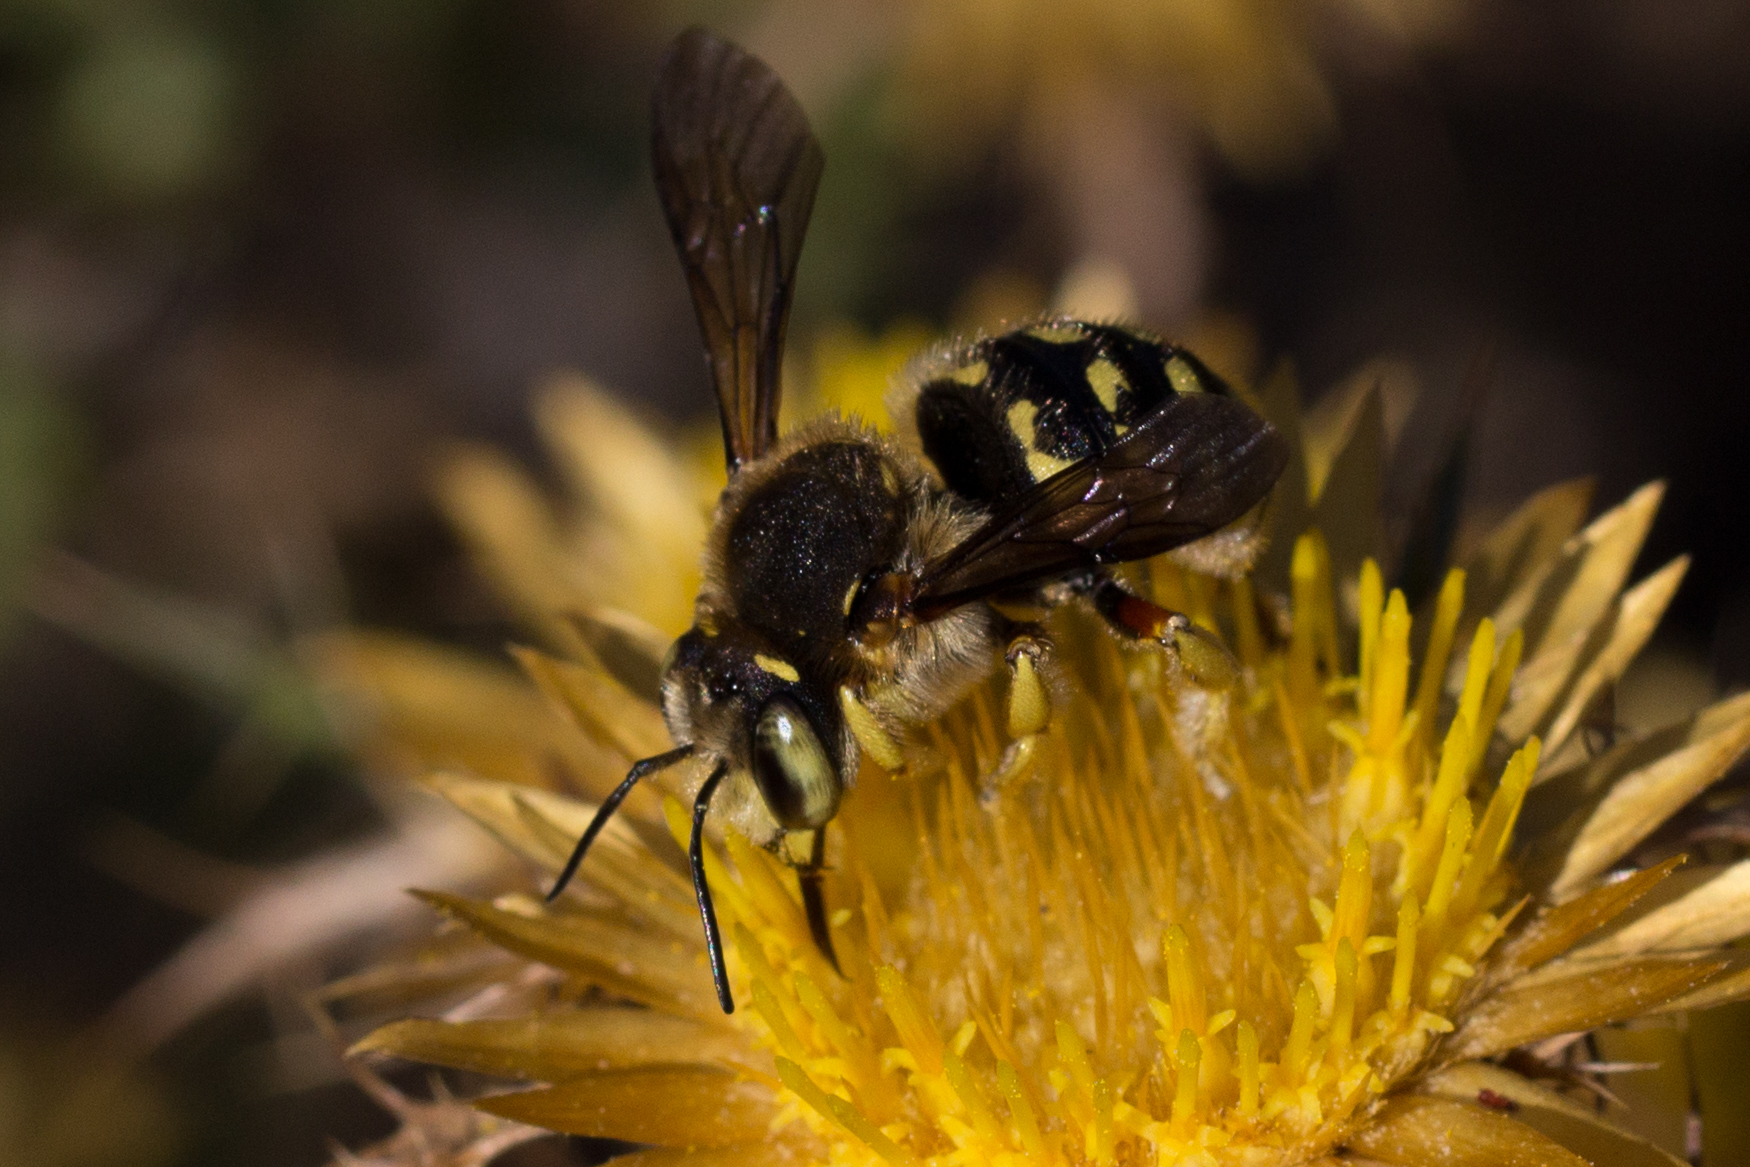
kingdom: Animalia
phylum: Arthropoda
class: Insecta
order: Hymenoptera
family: Megachilidae
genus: Anthidium
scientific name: Anthidium loti
